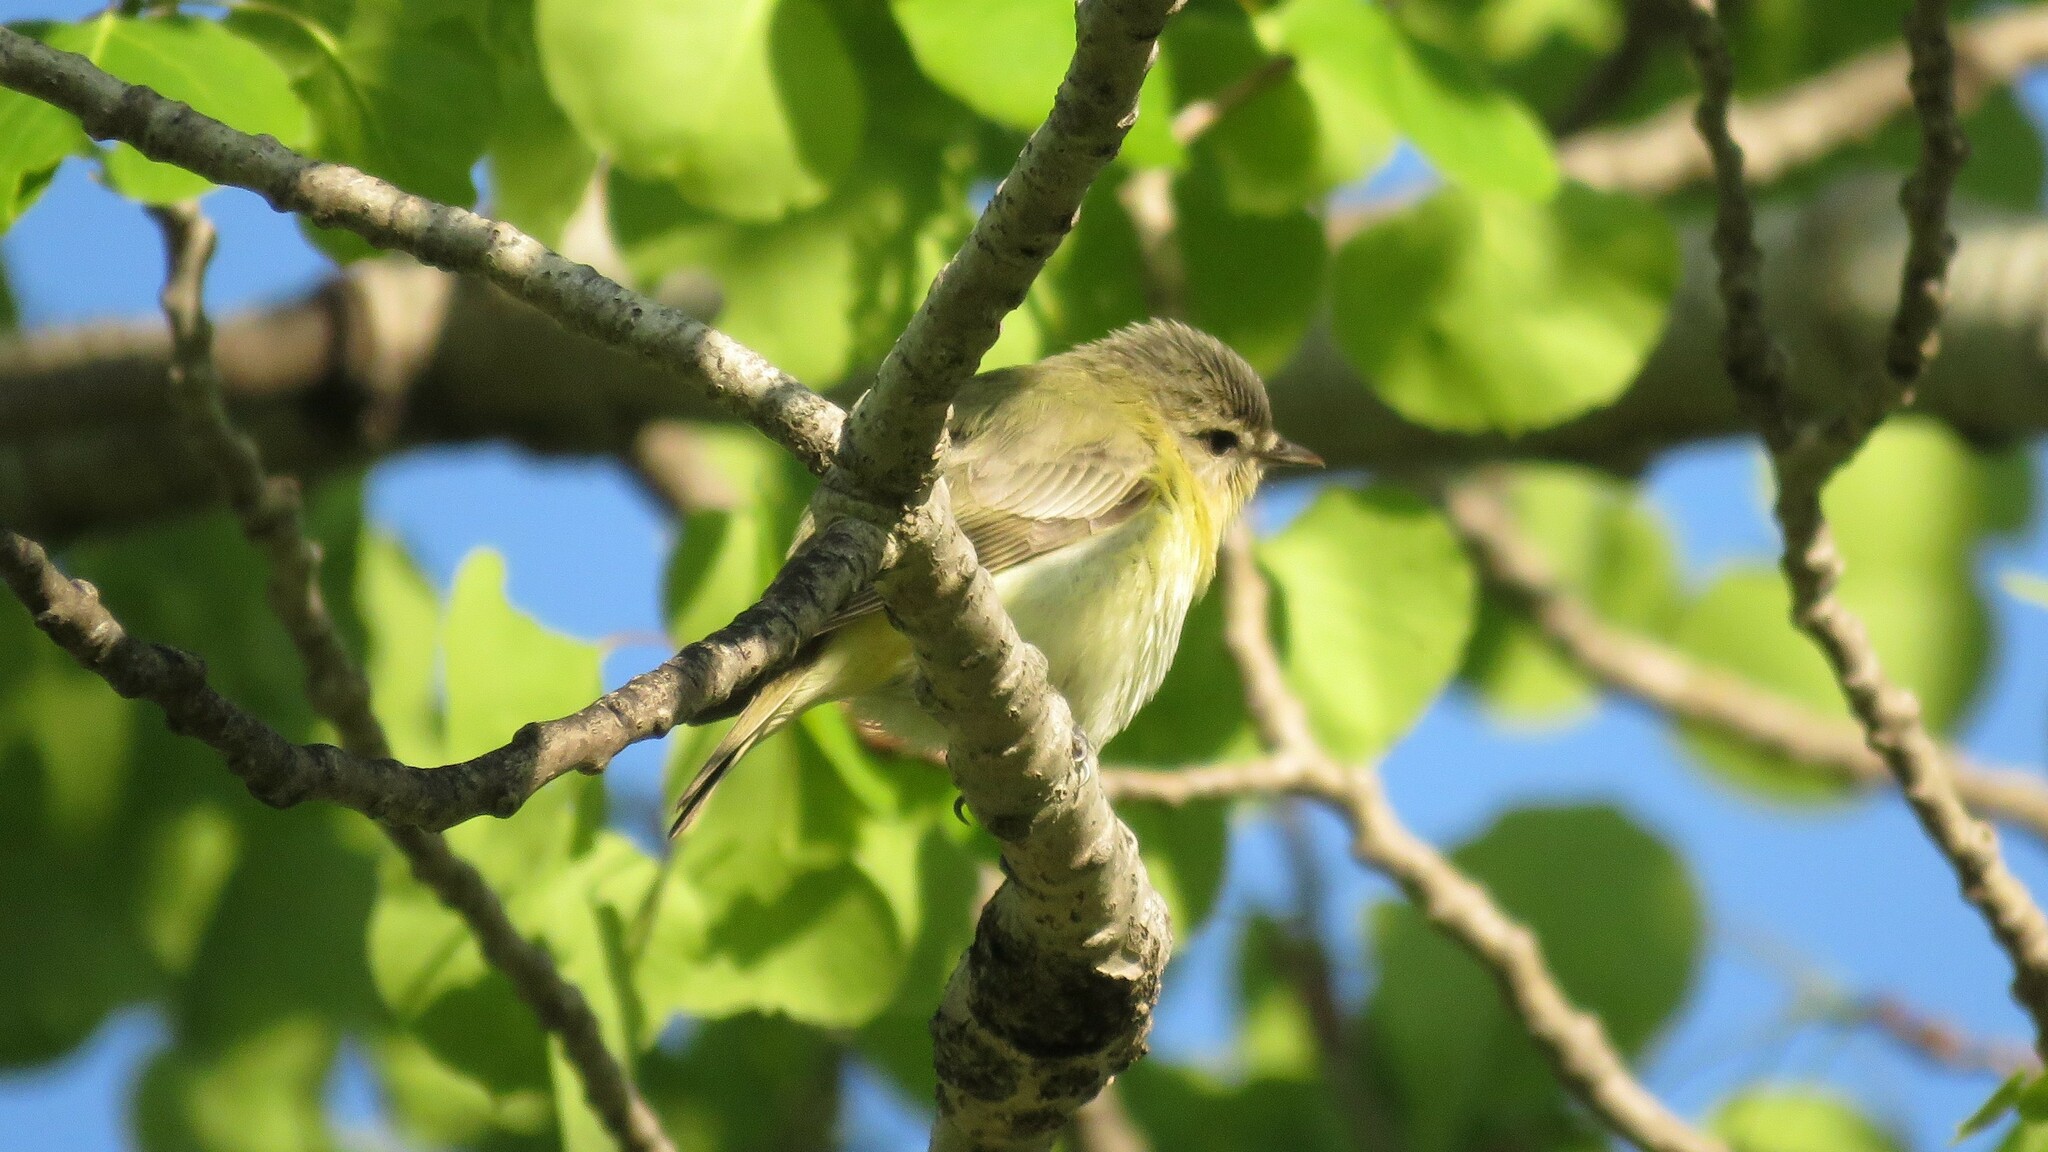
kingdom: Animalia
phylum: Chordata
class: Aves
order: Passeriformes
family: Vireonidae
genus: Vireo
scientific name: Vireo philadelphicus
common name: Philadelphia vireo
